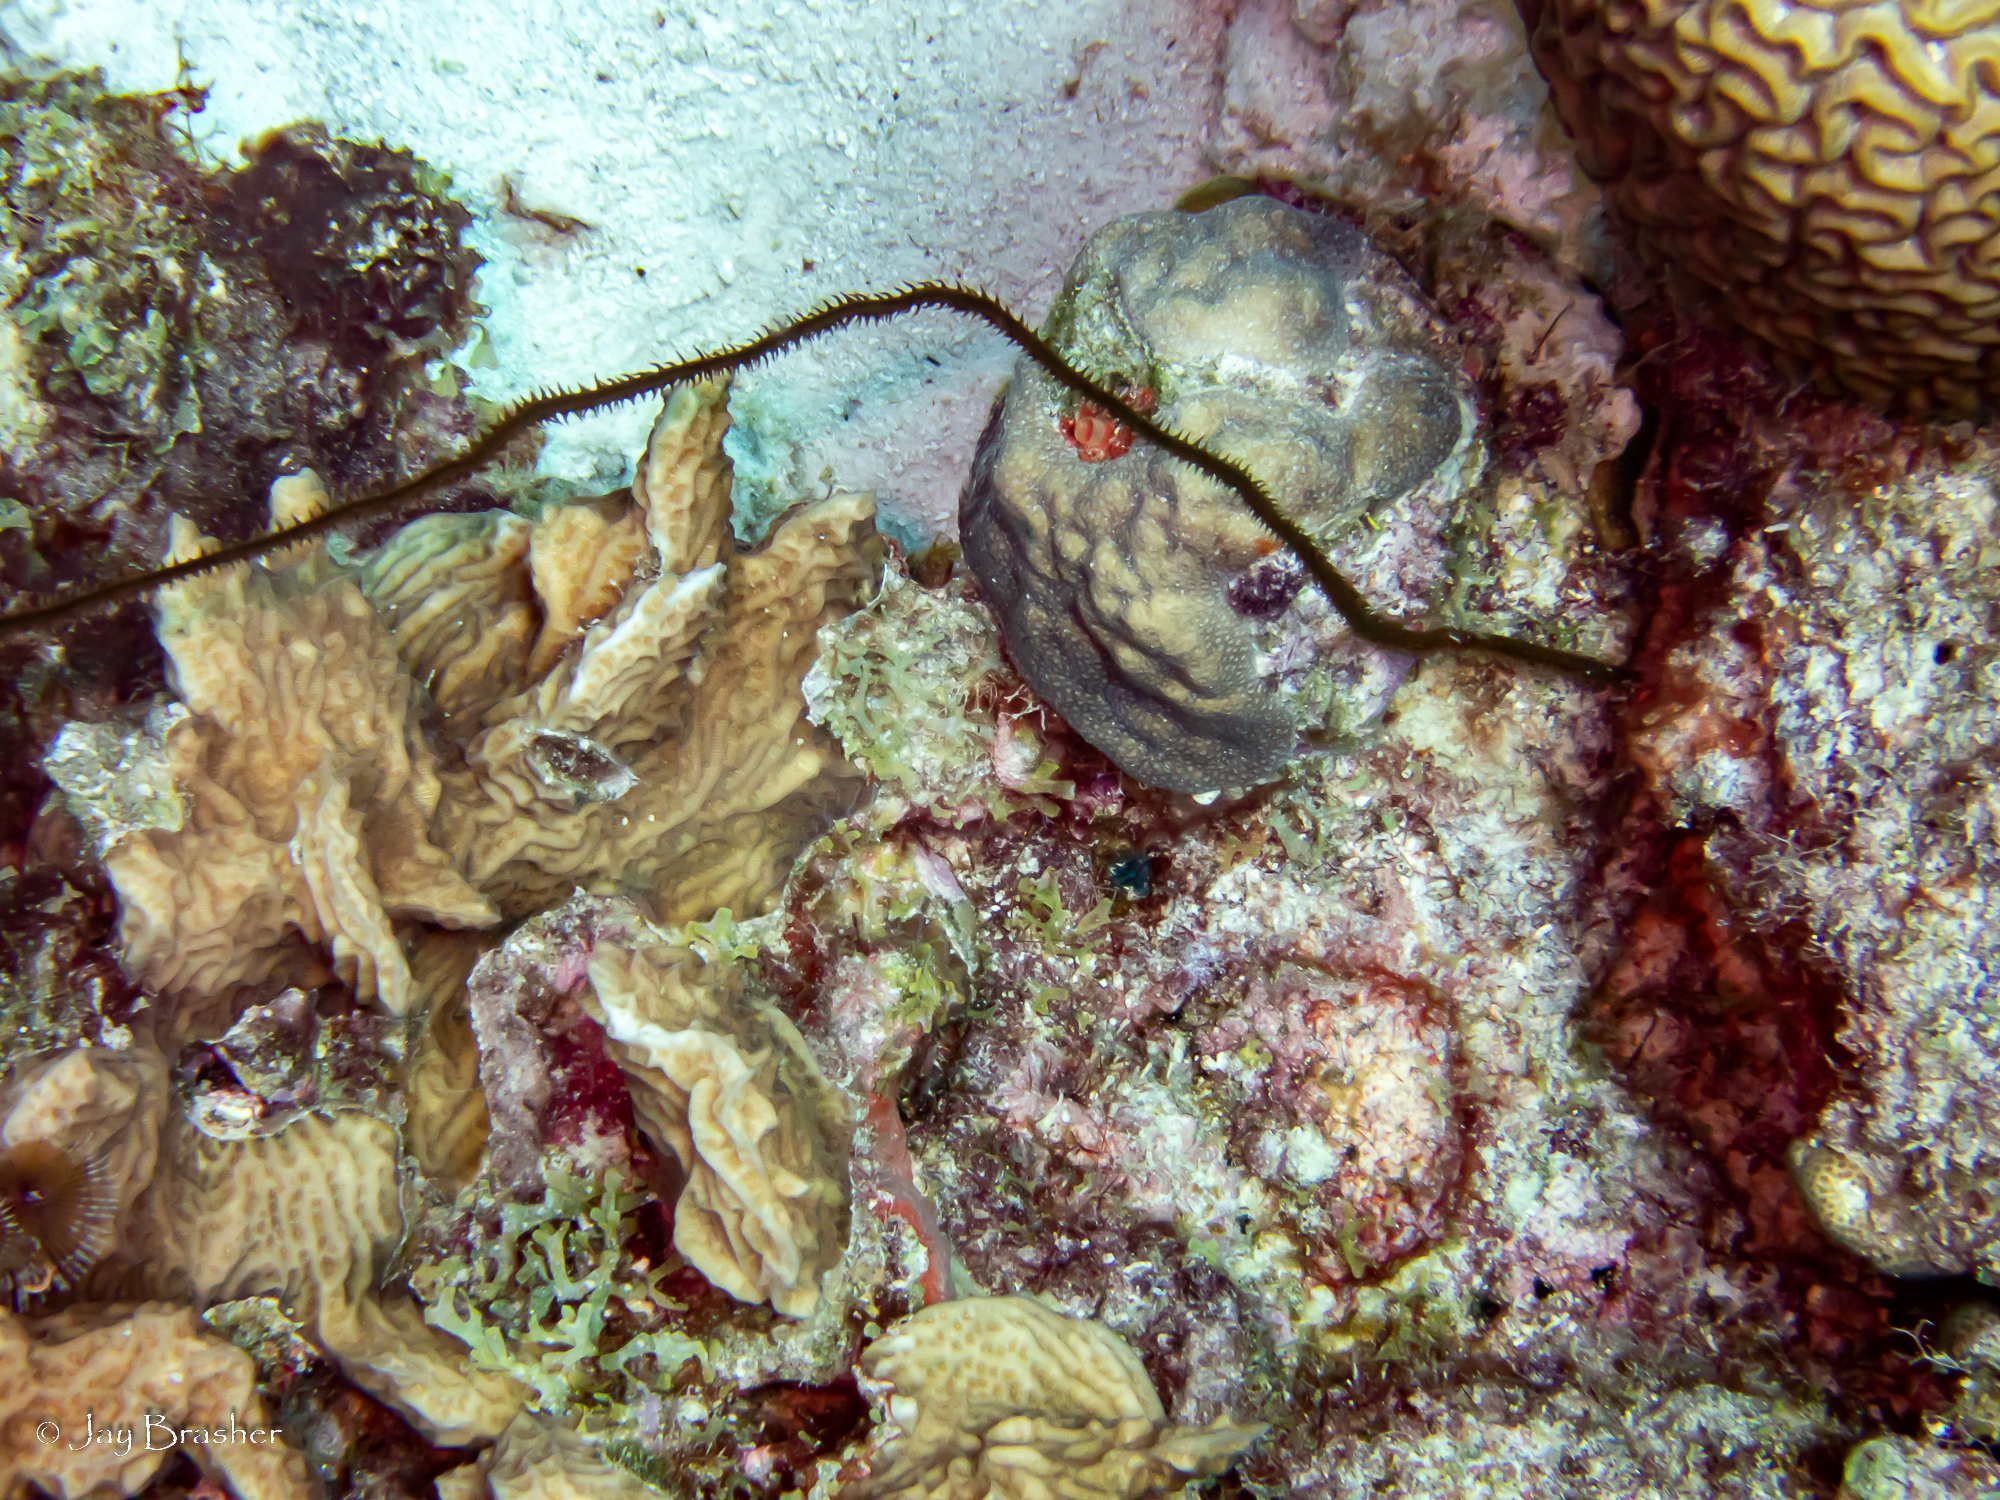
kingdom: Animalia
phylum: Cnidaria
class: Anthozoa
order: Scleralcyonacea
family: Erythropodiidae
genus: Erythropodium
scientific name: Erythropodium caribaeorum
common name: Encrusting gorgonian
